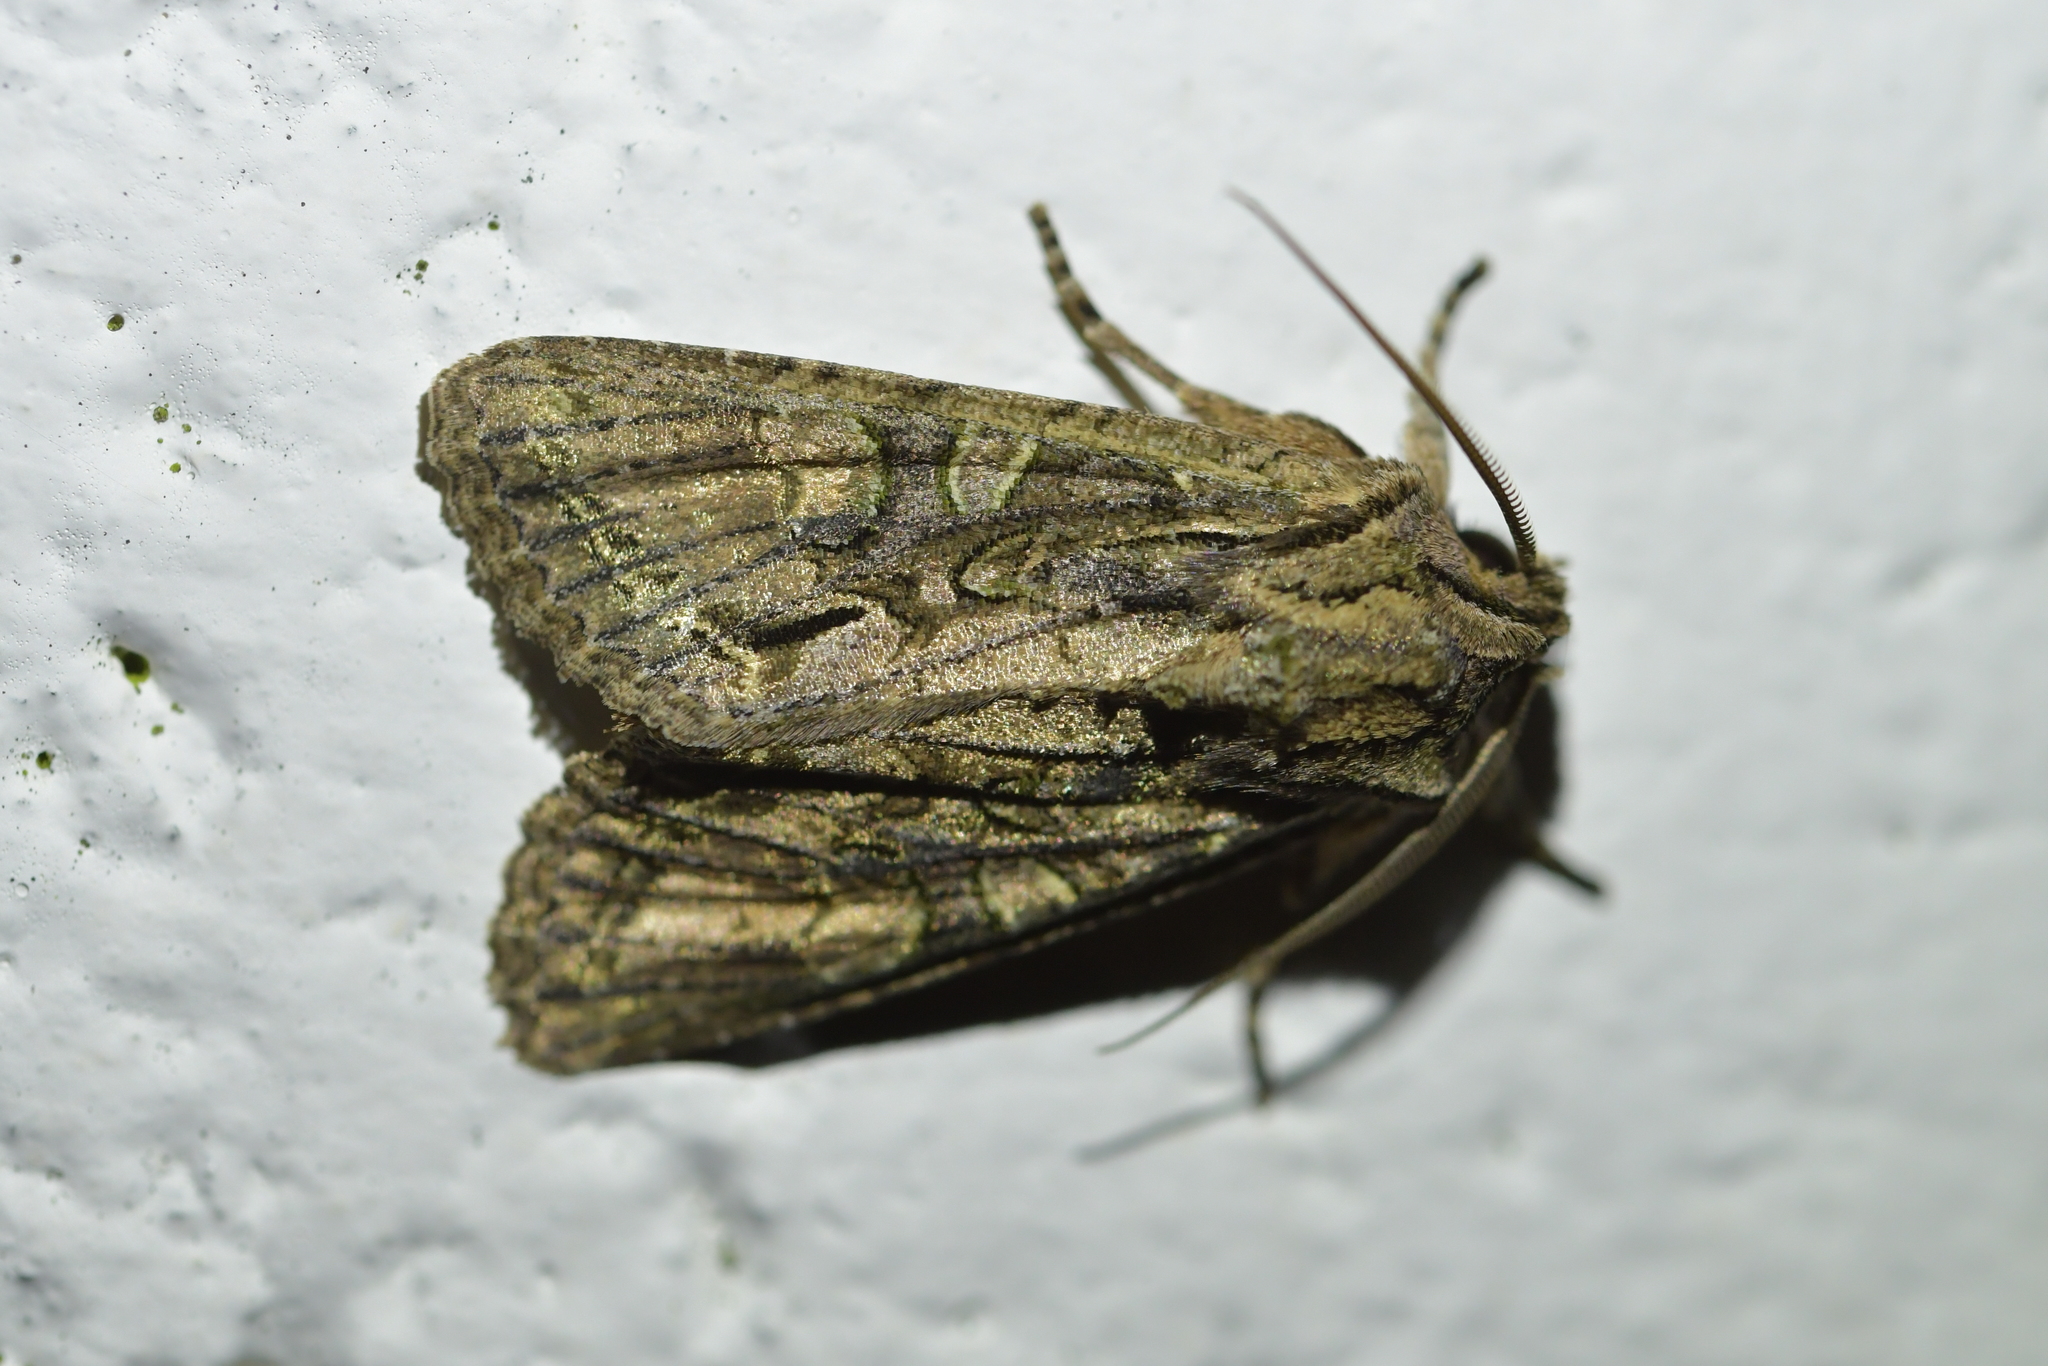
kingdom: Animalia
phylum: Arthropoda
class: Insecta
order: Lepidoptera
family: Noctuidae
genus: Ichneutica
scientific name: Ichneutica mutans
